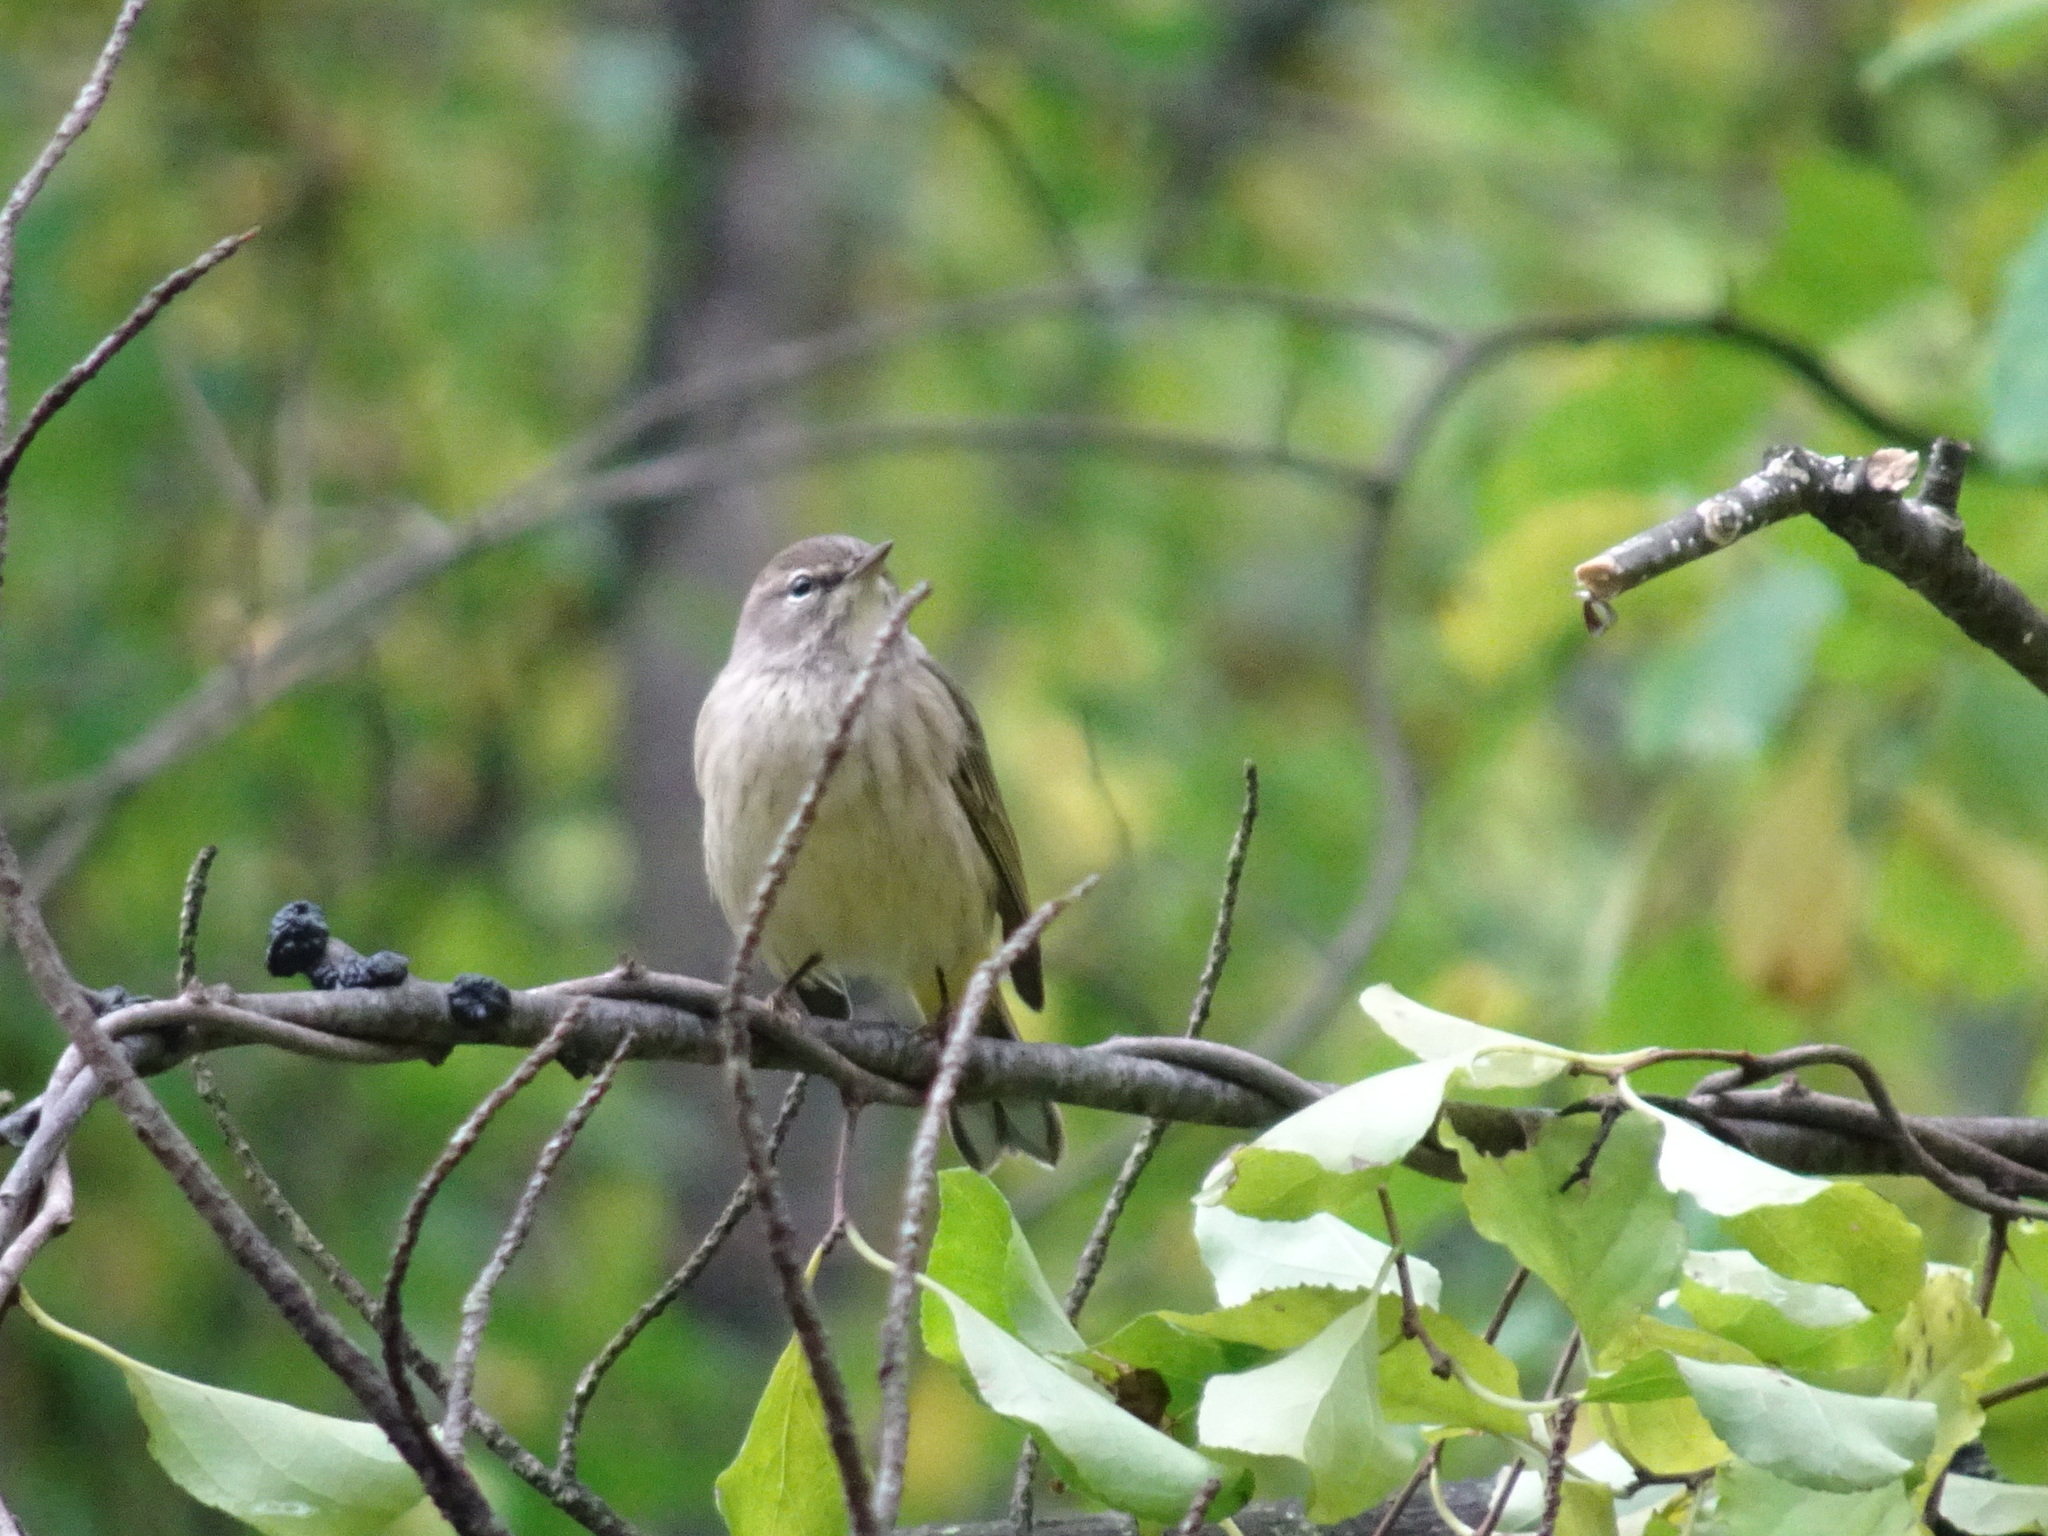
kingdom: Animalia
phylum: Chordata
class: Aves
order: Passeriformes
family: Parulidae
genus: Setophaga
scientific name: Setophaga palmarum
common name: Palm warbler
